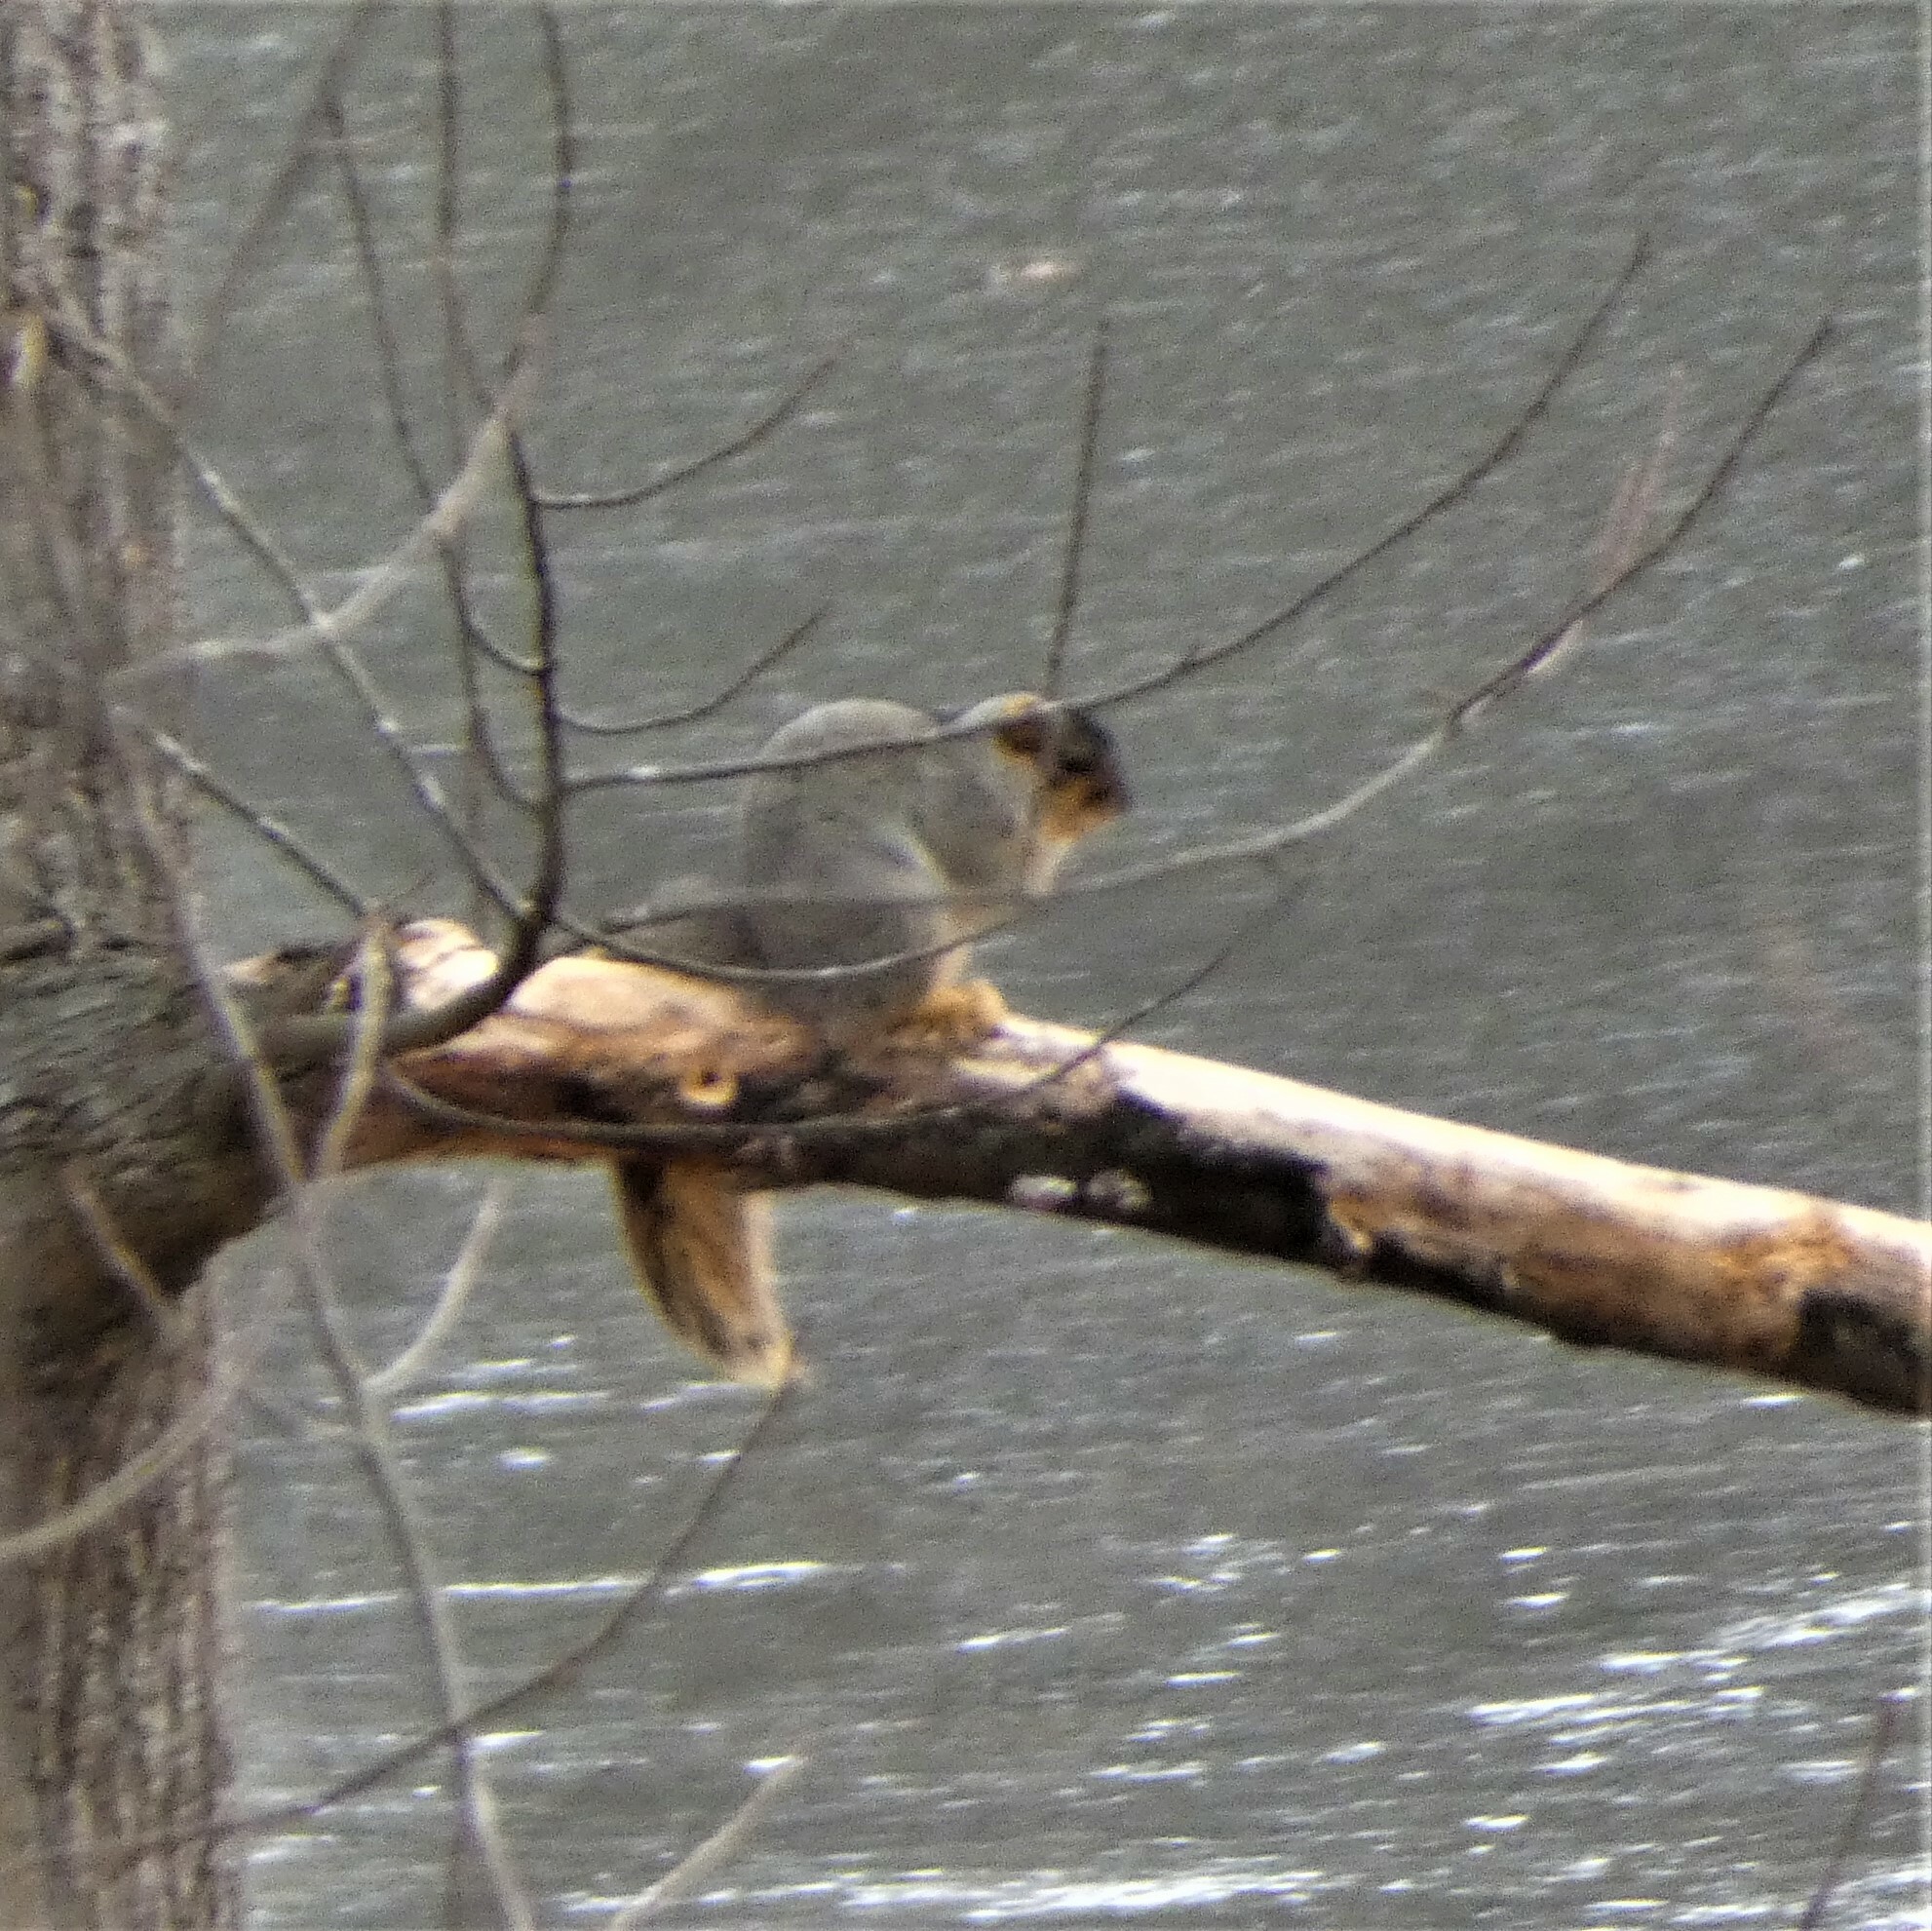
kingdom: Animalia
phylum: Chordata
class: Mammalia
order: Rodentia
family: Sciuridae
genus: Sciurus
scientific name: Sciurus niger
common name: Fox squirrel
